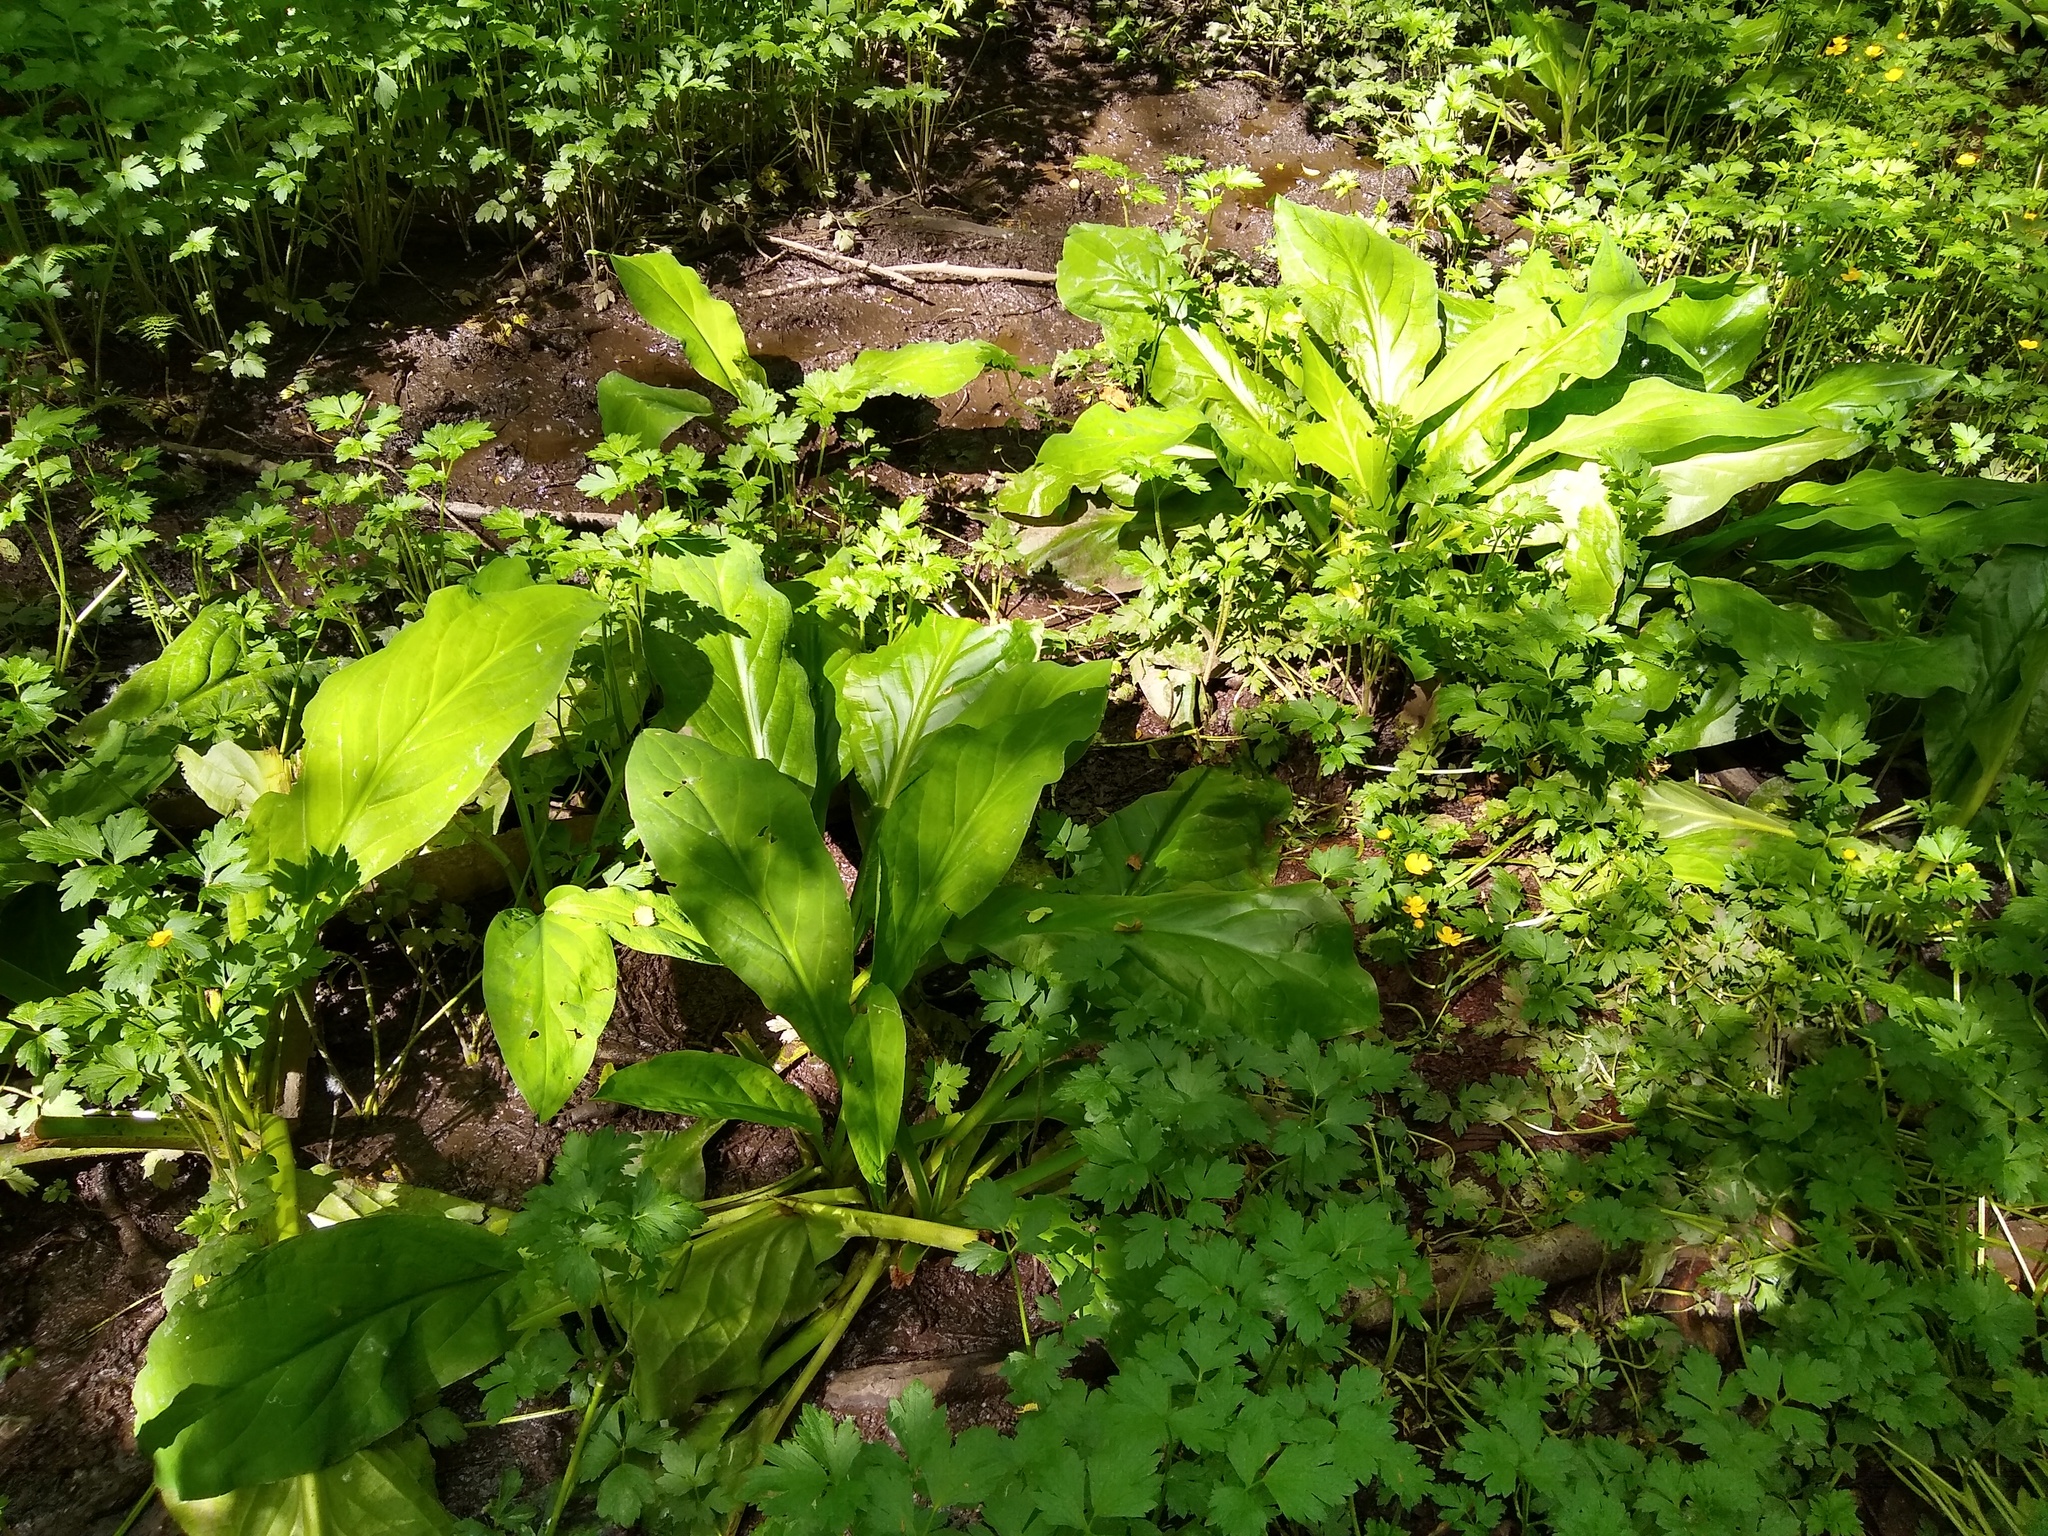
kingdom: Plantae
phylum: Tracheophyta
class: Liliopsida
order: Alismatales
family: Araceae
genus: Lysichiton
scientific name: Lysichiton americanus
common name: American skunk cabbage
